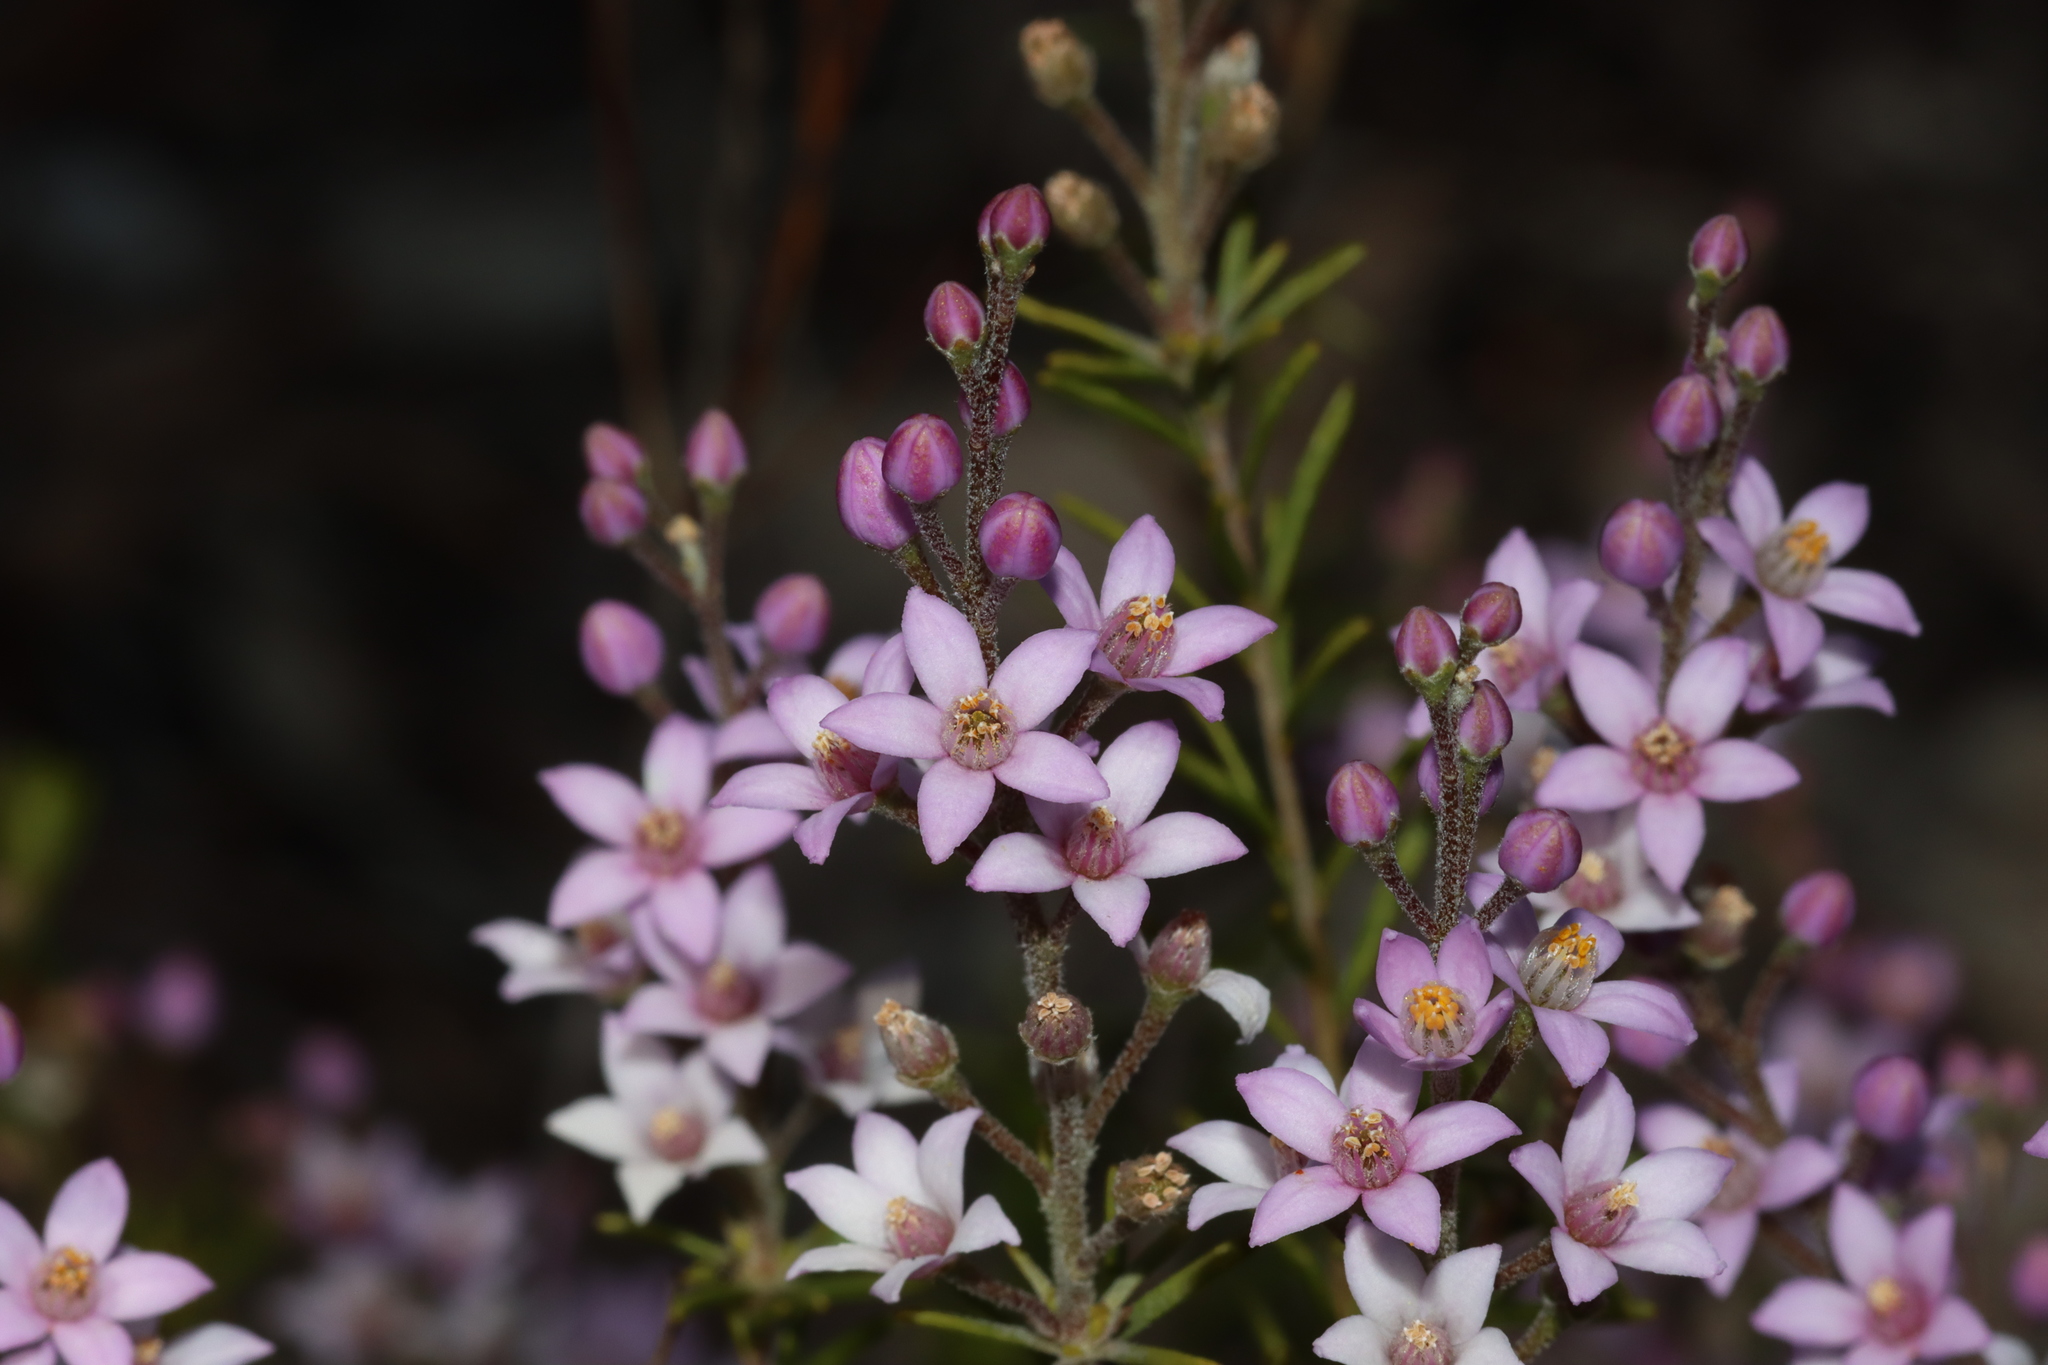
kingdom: Plantae
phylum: Tracheophyta
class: Magnoliopsida
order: Sapindales
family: Rutaceae
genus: Philotheca
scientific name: Philotheca spicata
